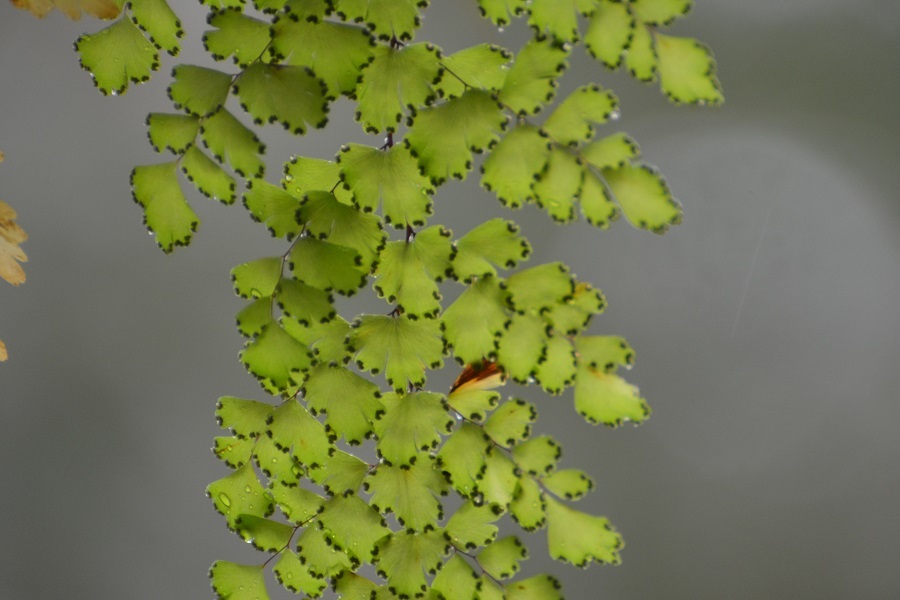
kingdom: Plantae
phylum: Tracheophyta
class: Polypodiopsida
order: Polypodiales
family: Pteridaceae
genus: Adiantum
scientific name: Adiantum concinnum
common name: Brittle maidenhair fern
